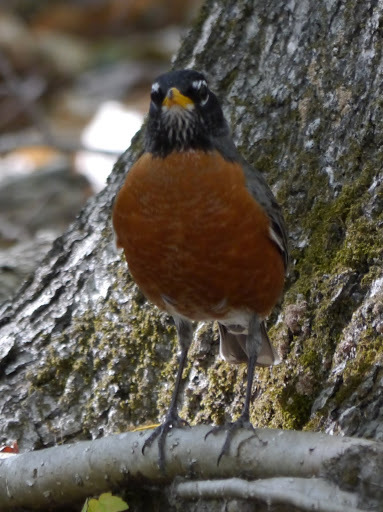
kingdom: Animalia
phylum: Chordata
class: Aves
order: Passeriformes
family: Turdidae
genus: Turdus
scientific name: Turdus migratorius
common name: American robin
